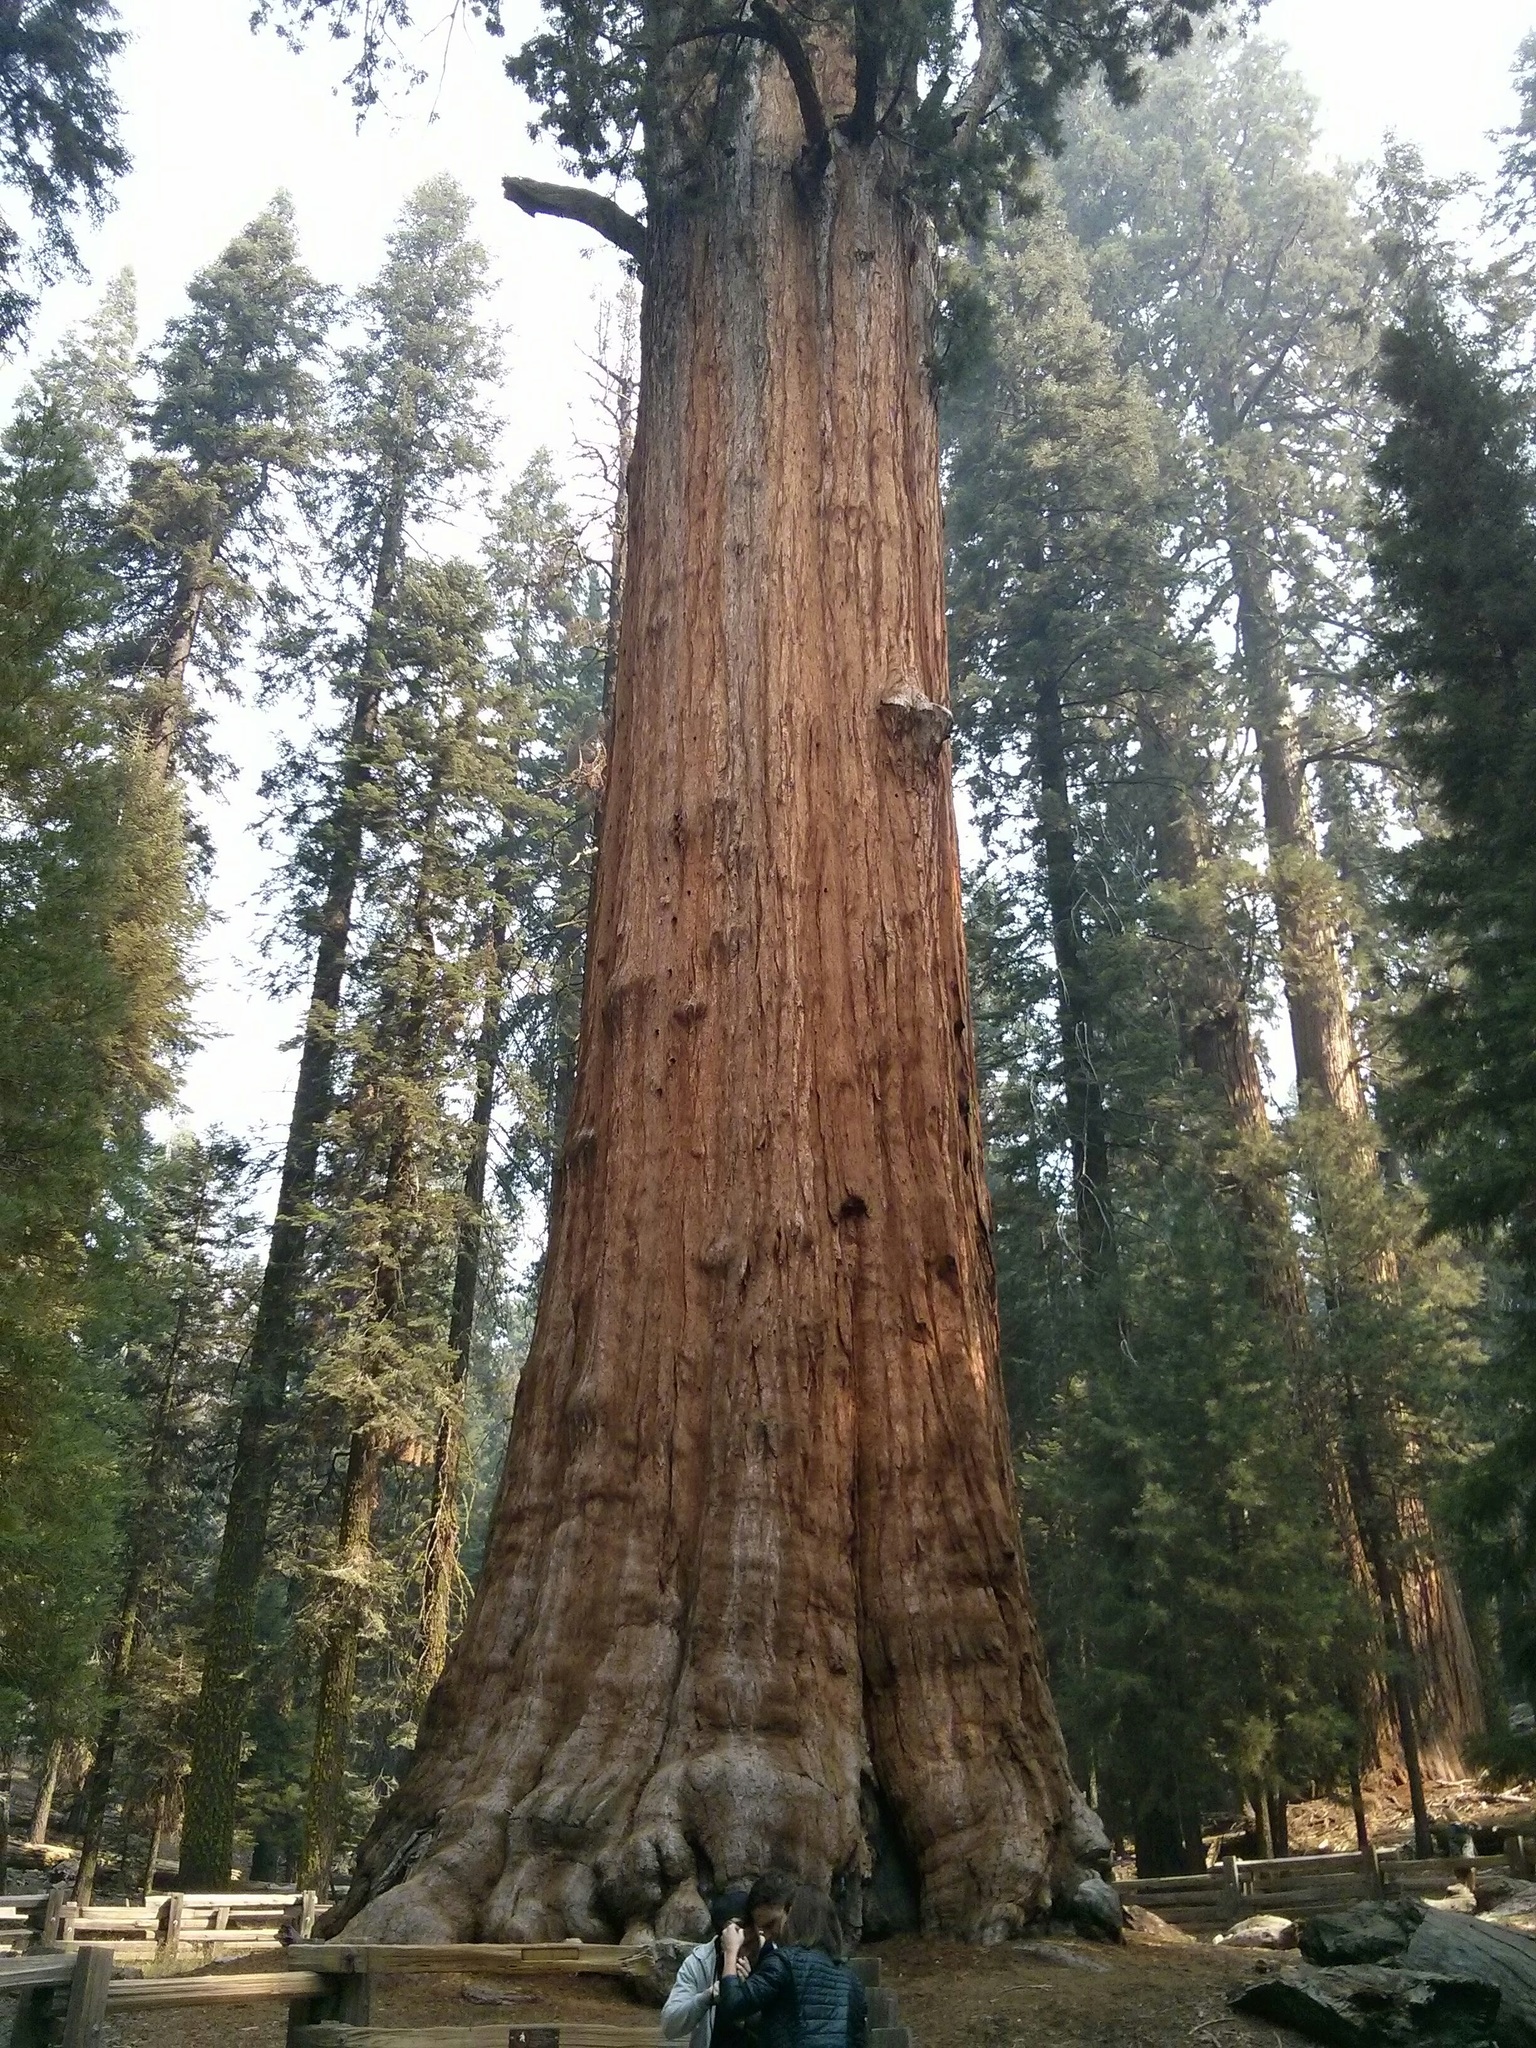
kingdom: Plantae
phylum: Tracheophyta
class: Pinopsida
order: Pinales
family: Cupressaceae
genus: Sequoiadendron
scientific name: Sequoiadendron giganteum
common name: Wellingtonia
